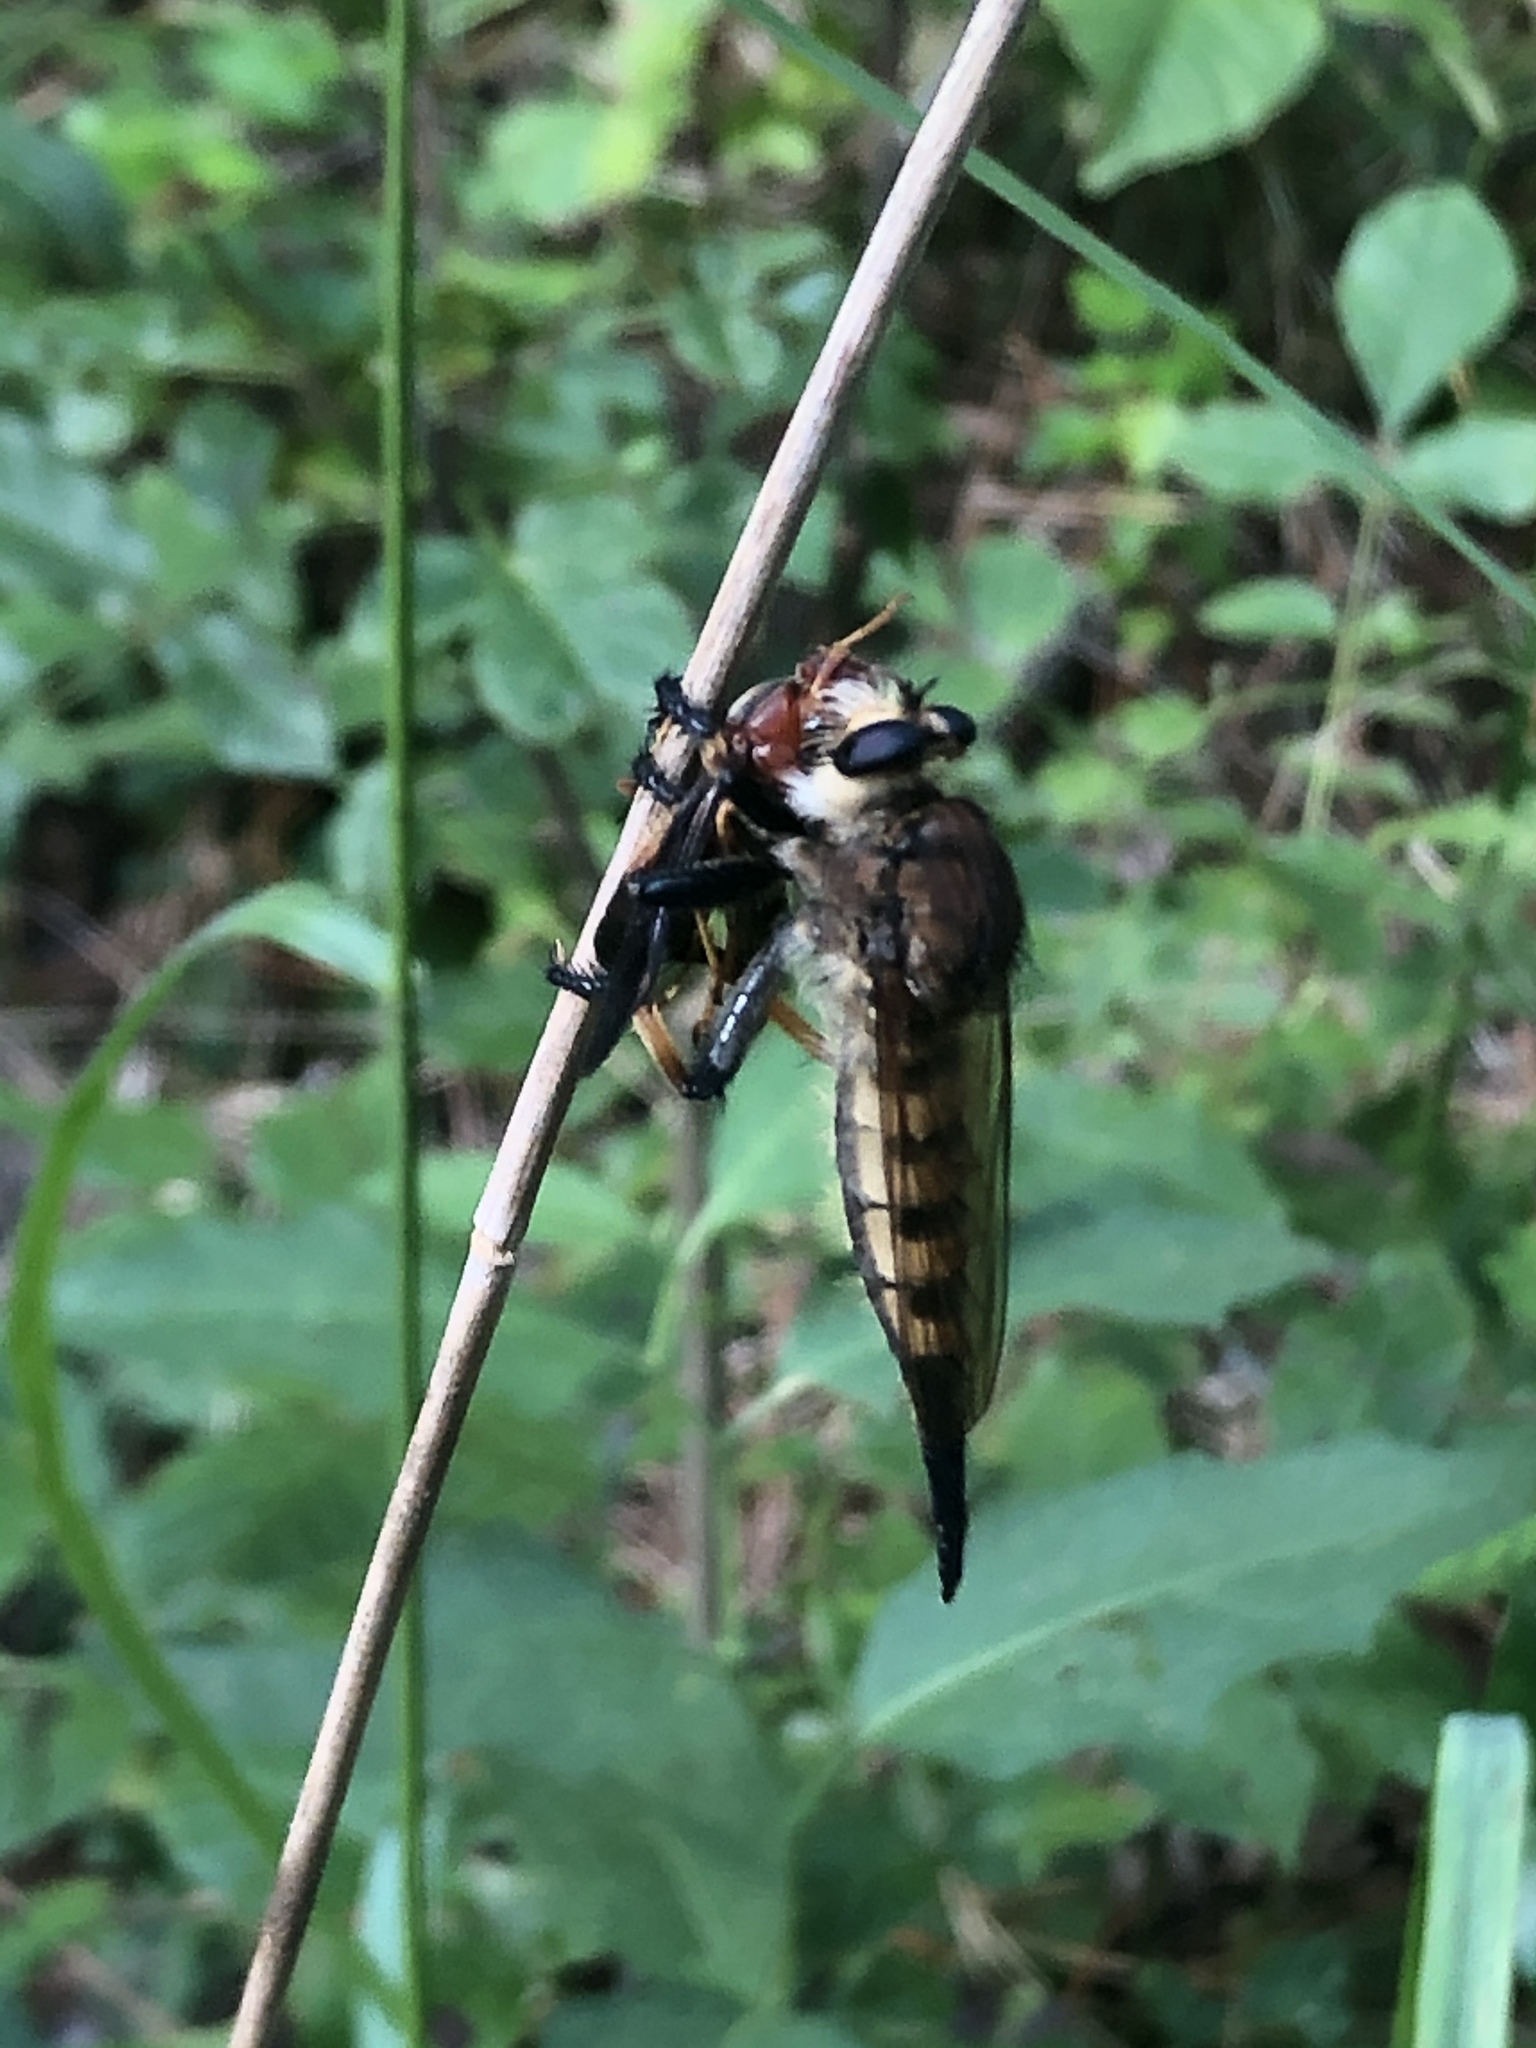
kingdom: Animalia
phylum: Arthropoda
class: Insecta
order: Diptera
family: Asilidae
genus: Promachus
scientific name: Promachus rufipes
